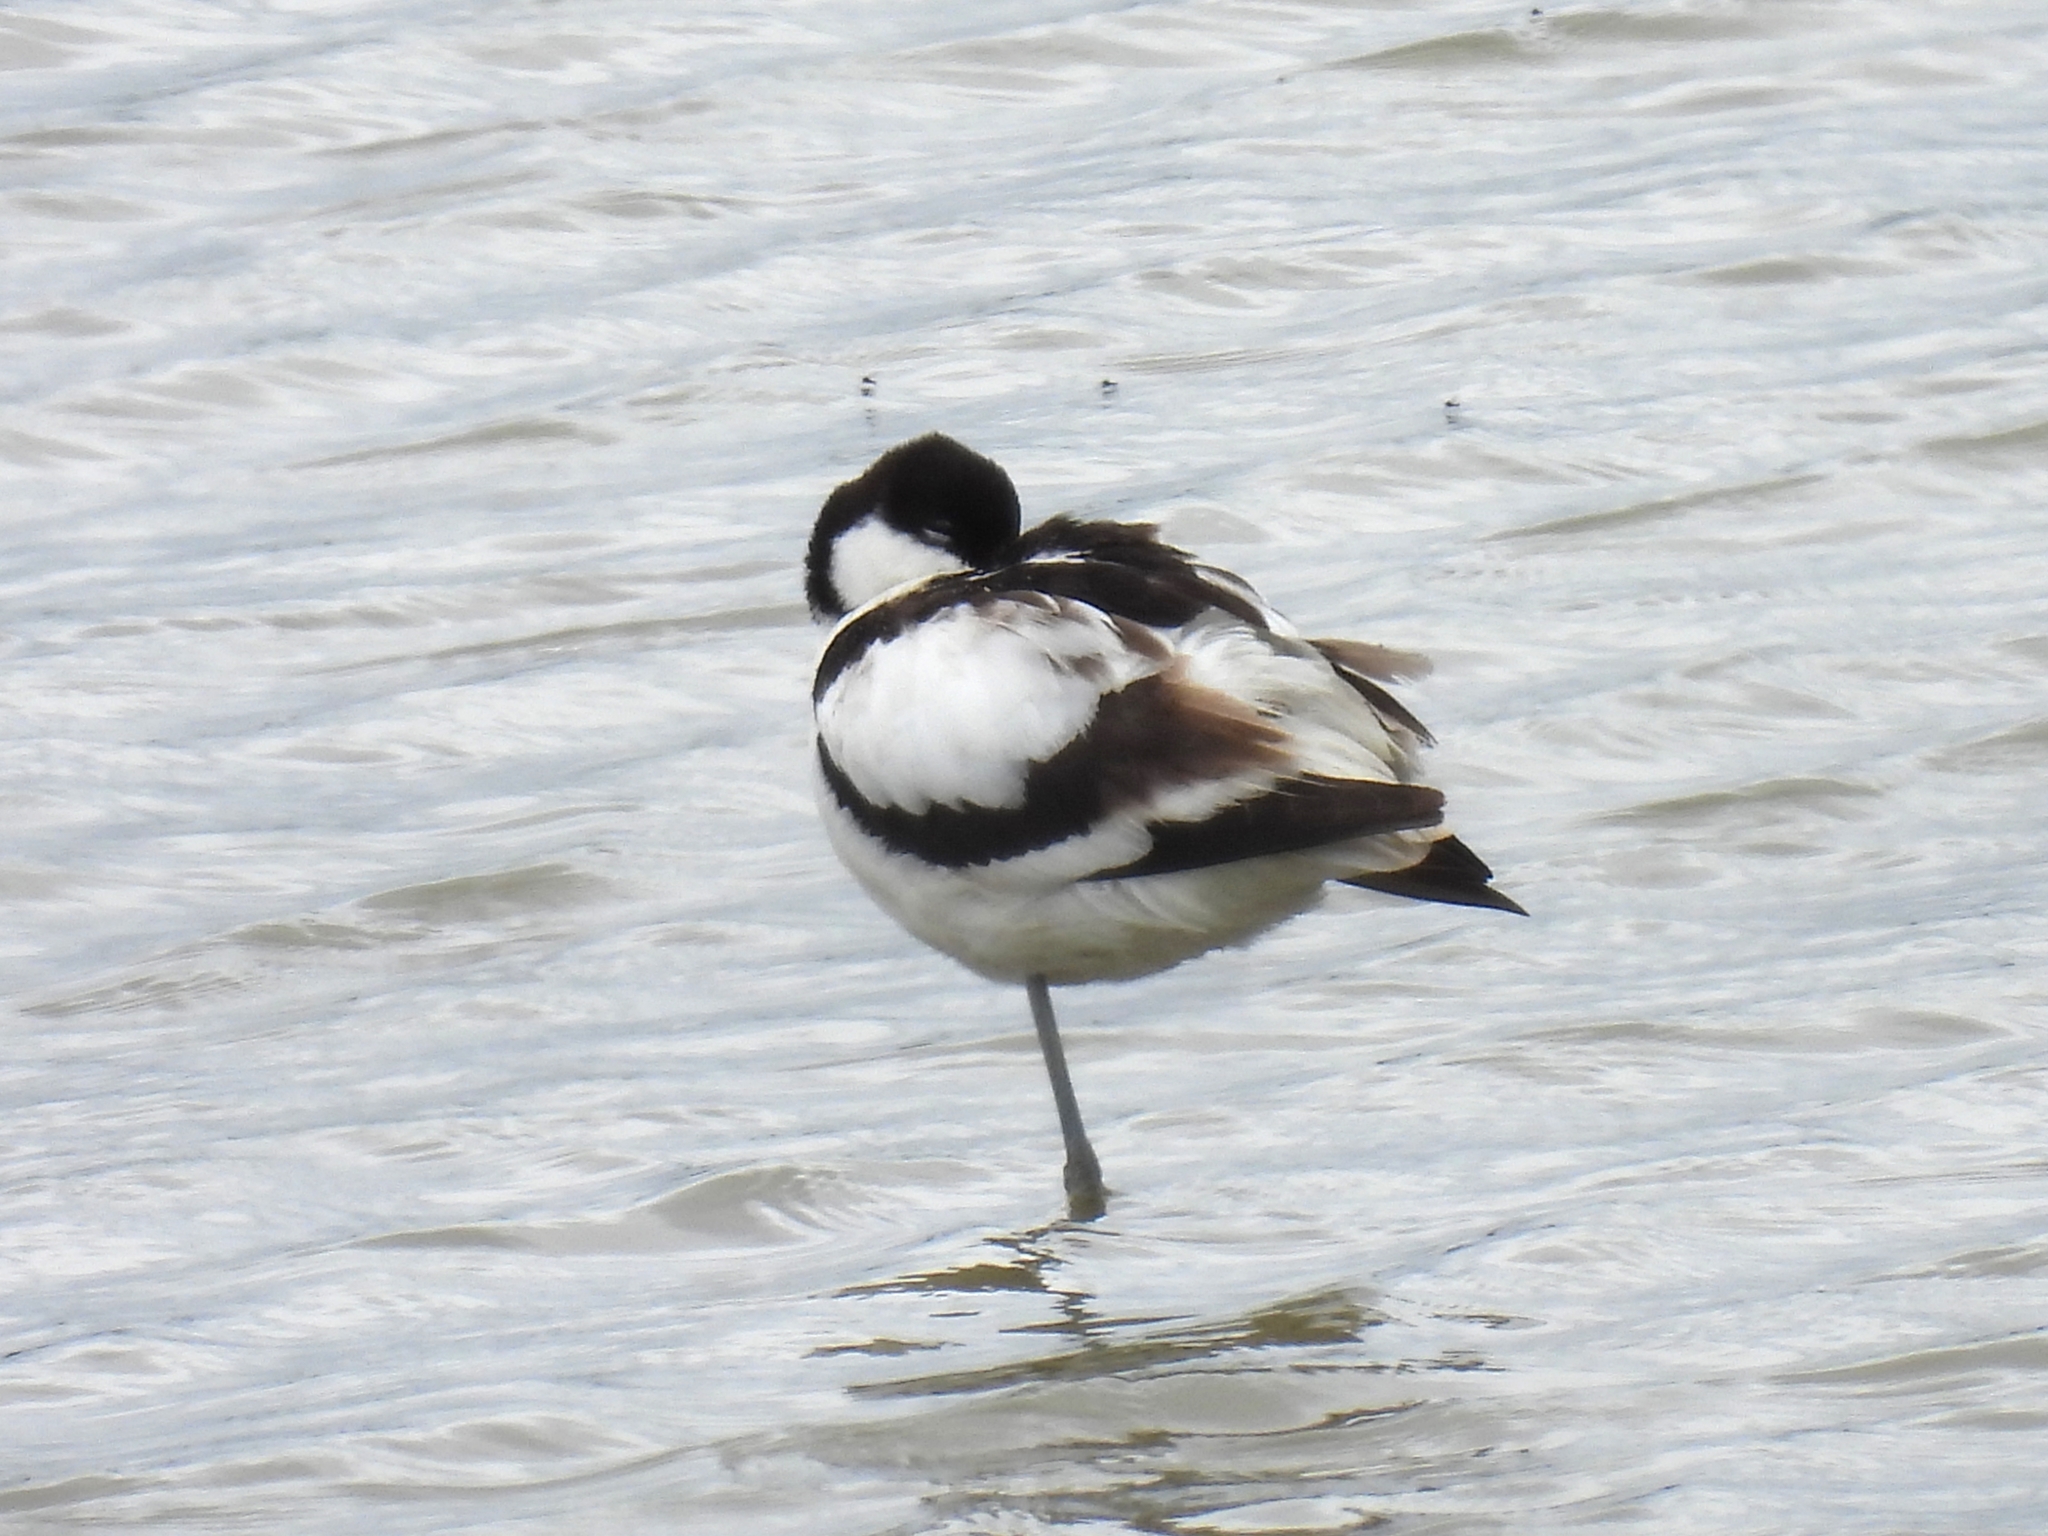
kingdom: Animalia
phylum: Chordata
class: Aves
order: Charadriiformes
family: Recurvirostridae
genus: Recurvirostra
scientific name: Recurvirostra avosetta
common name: Pied avocet
